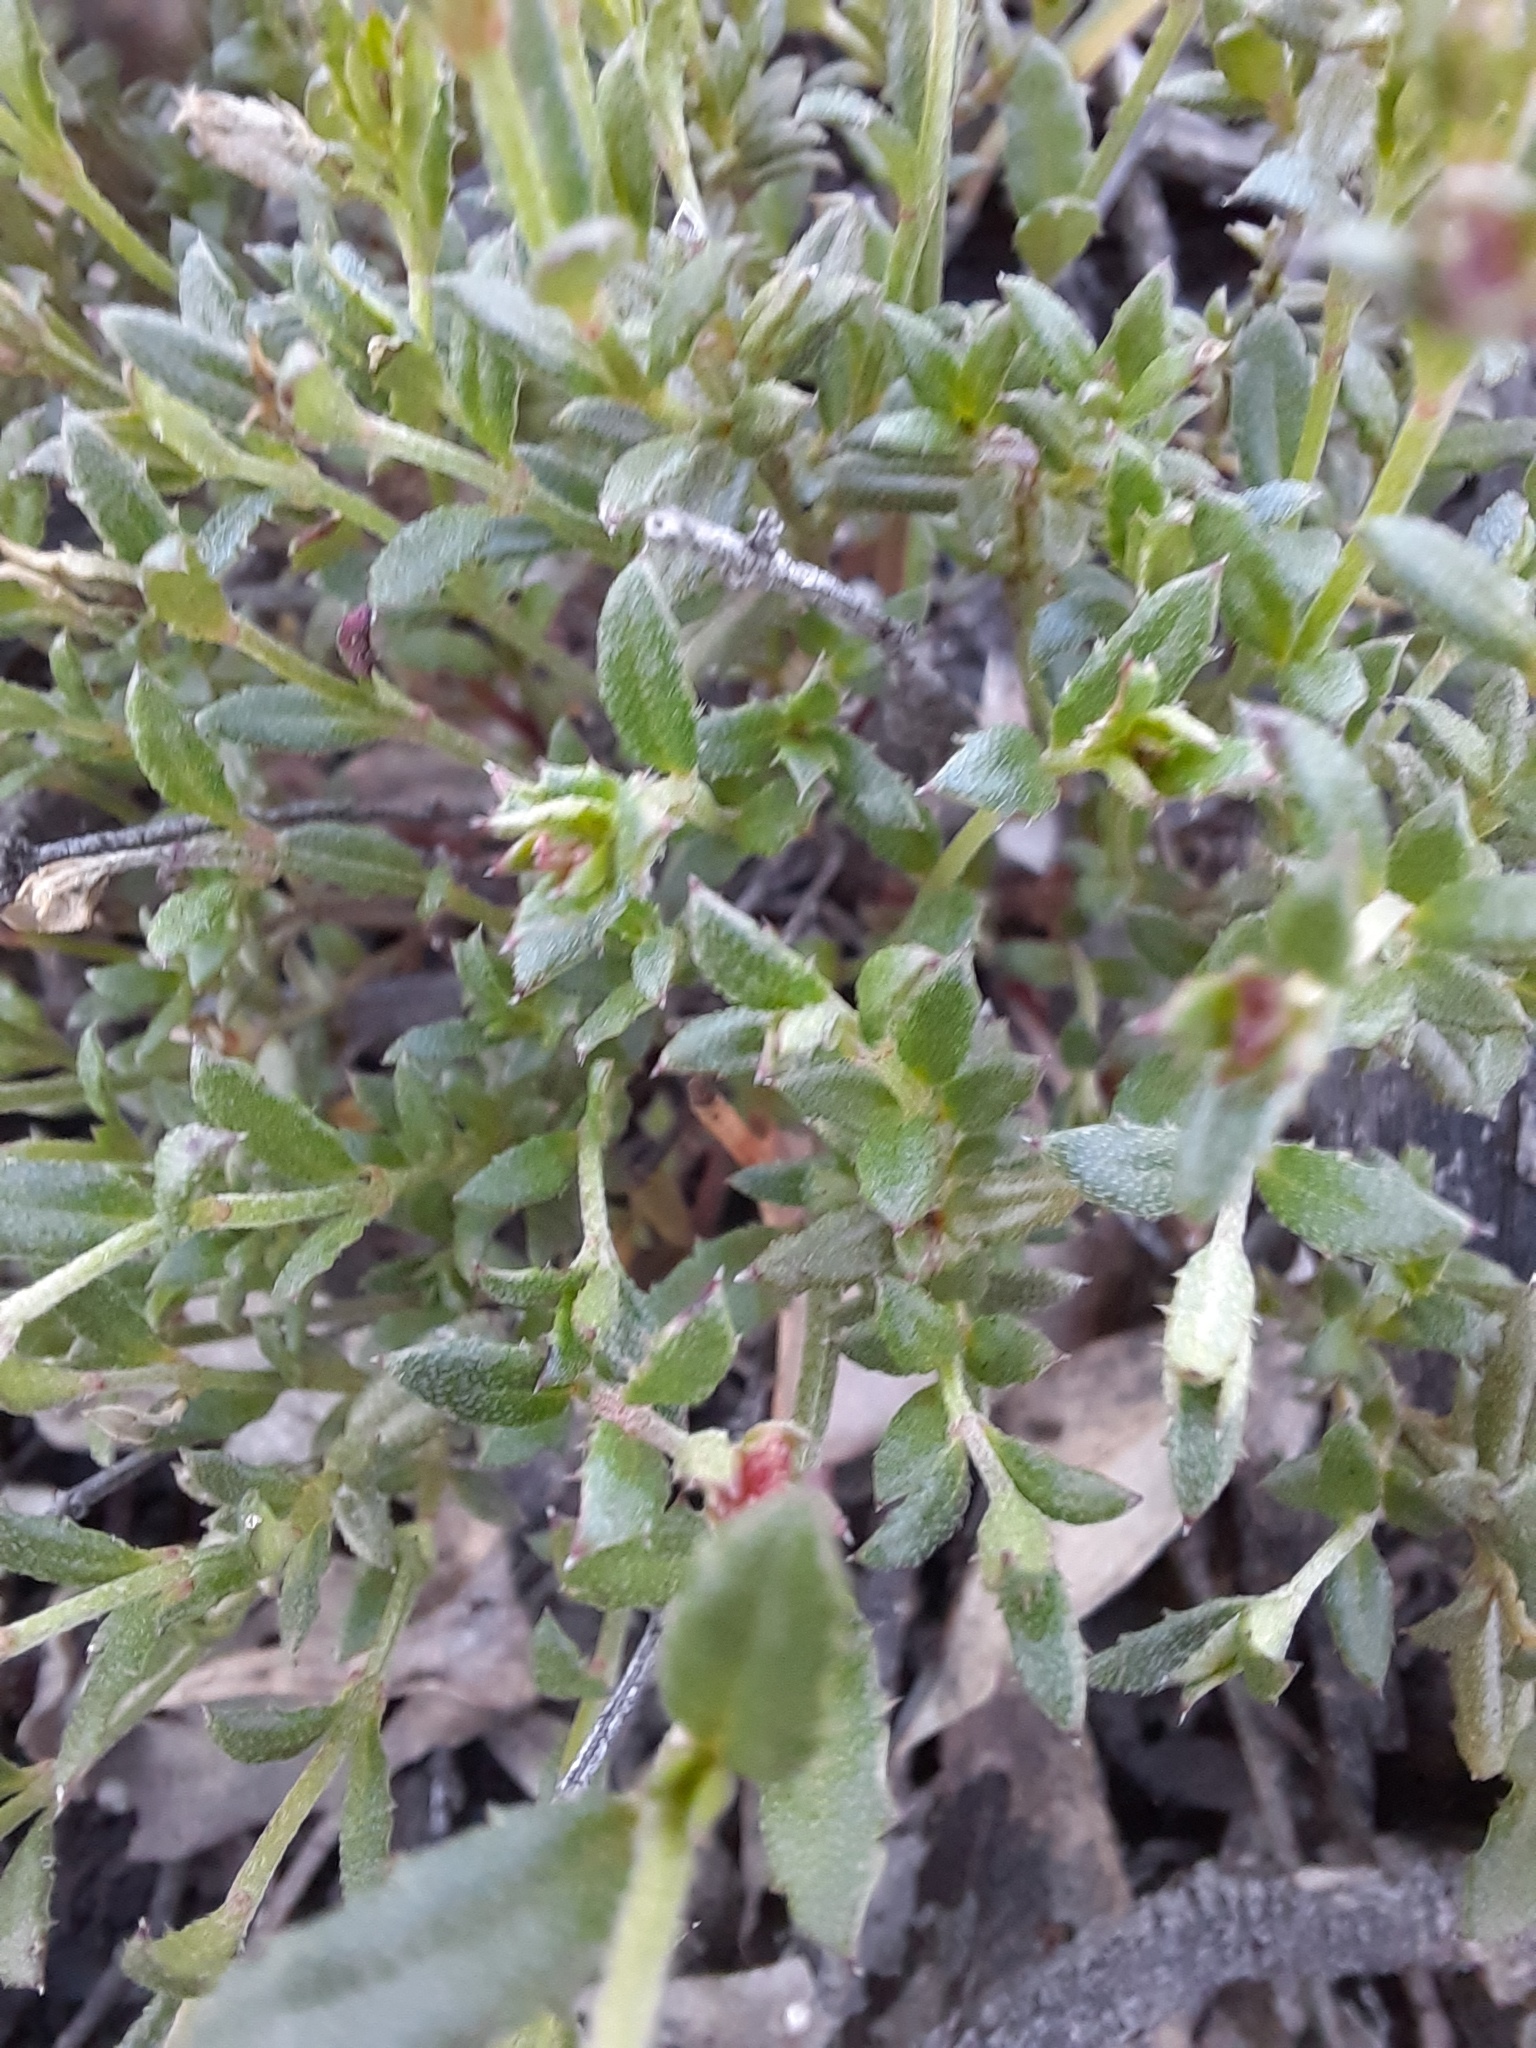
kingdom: Plantae
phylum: Tracheophyta
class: Magnoliopsida
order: Saxifragales
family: Haloragaceae
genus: Gonocarpus
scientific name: Gonocarpus tetragynus
